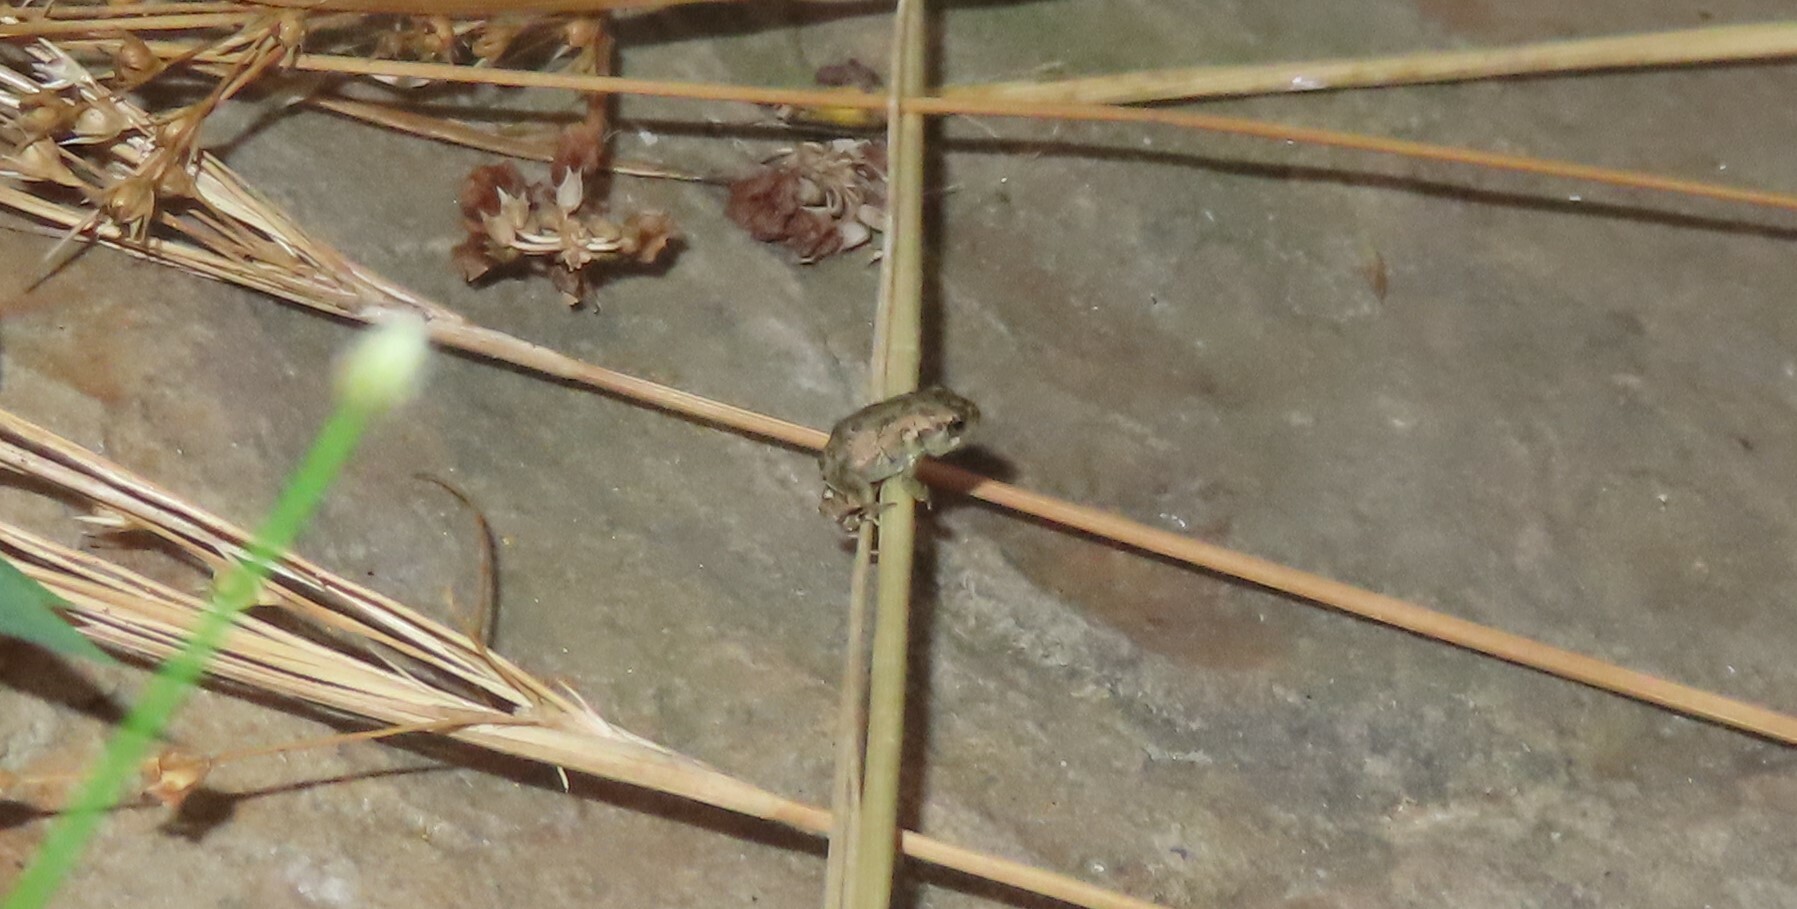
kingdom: Animalia
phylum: Chordata
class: Amphibia
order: Anura
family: Bufonidae
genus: Anaxyrus
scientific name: Anaxyrus fowleri
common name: Fowler's toad
